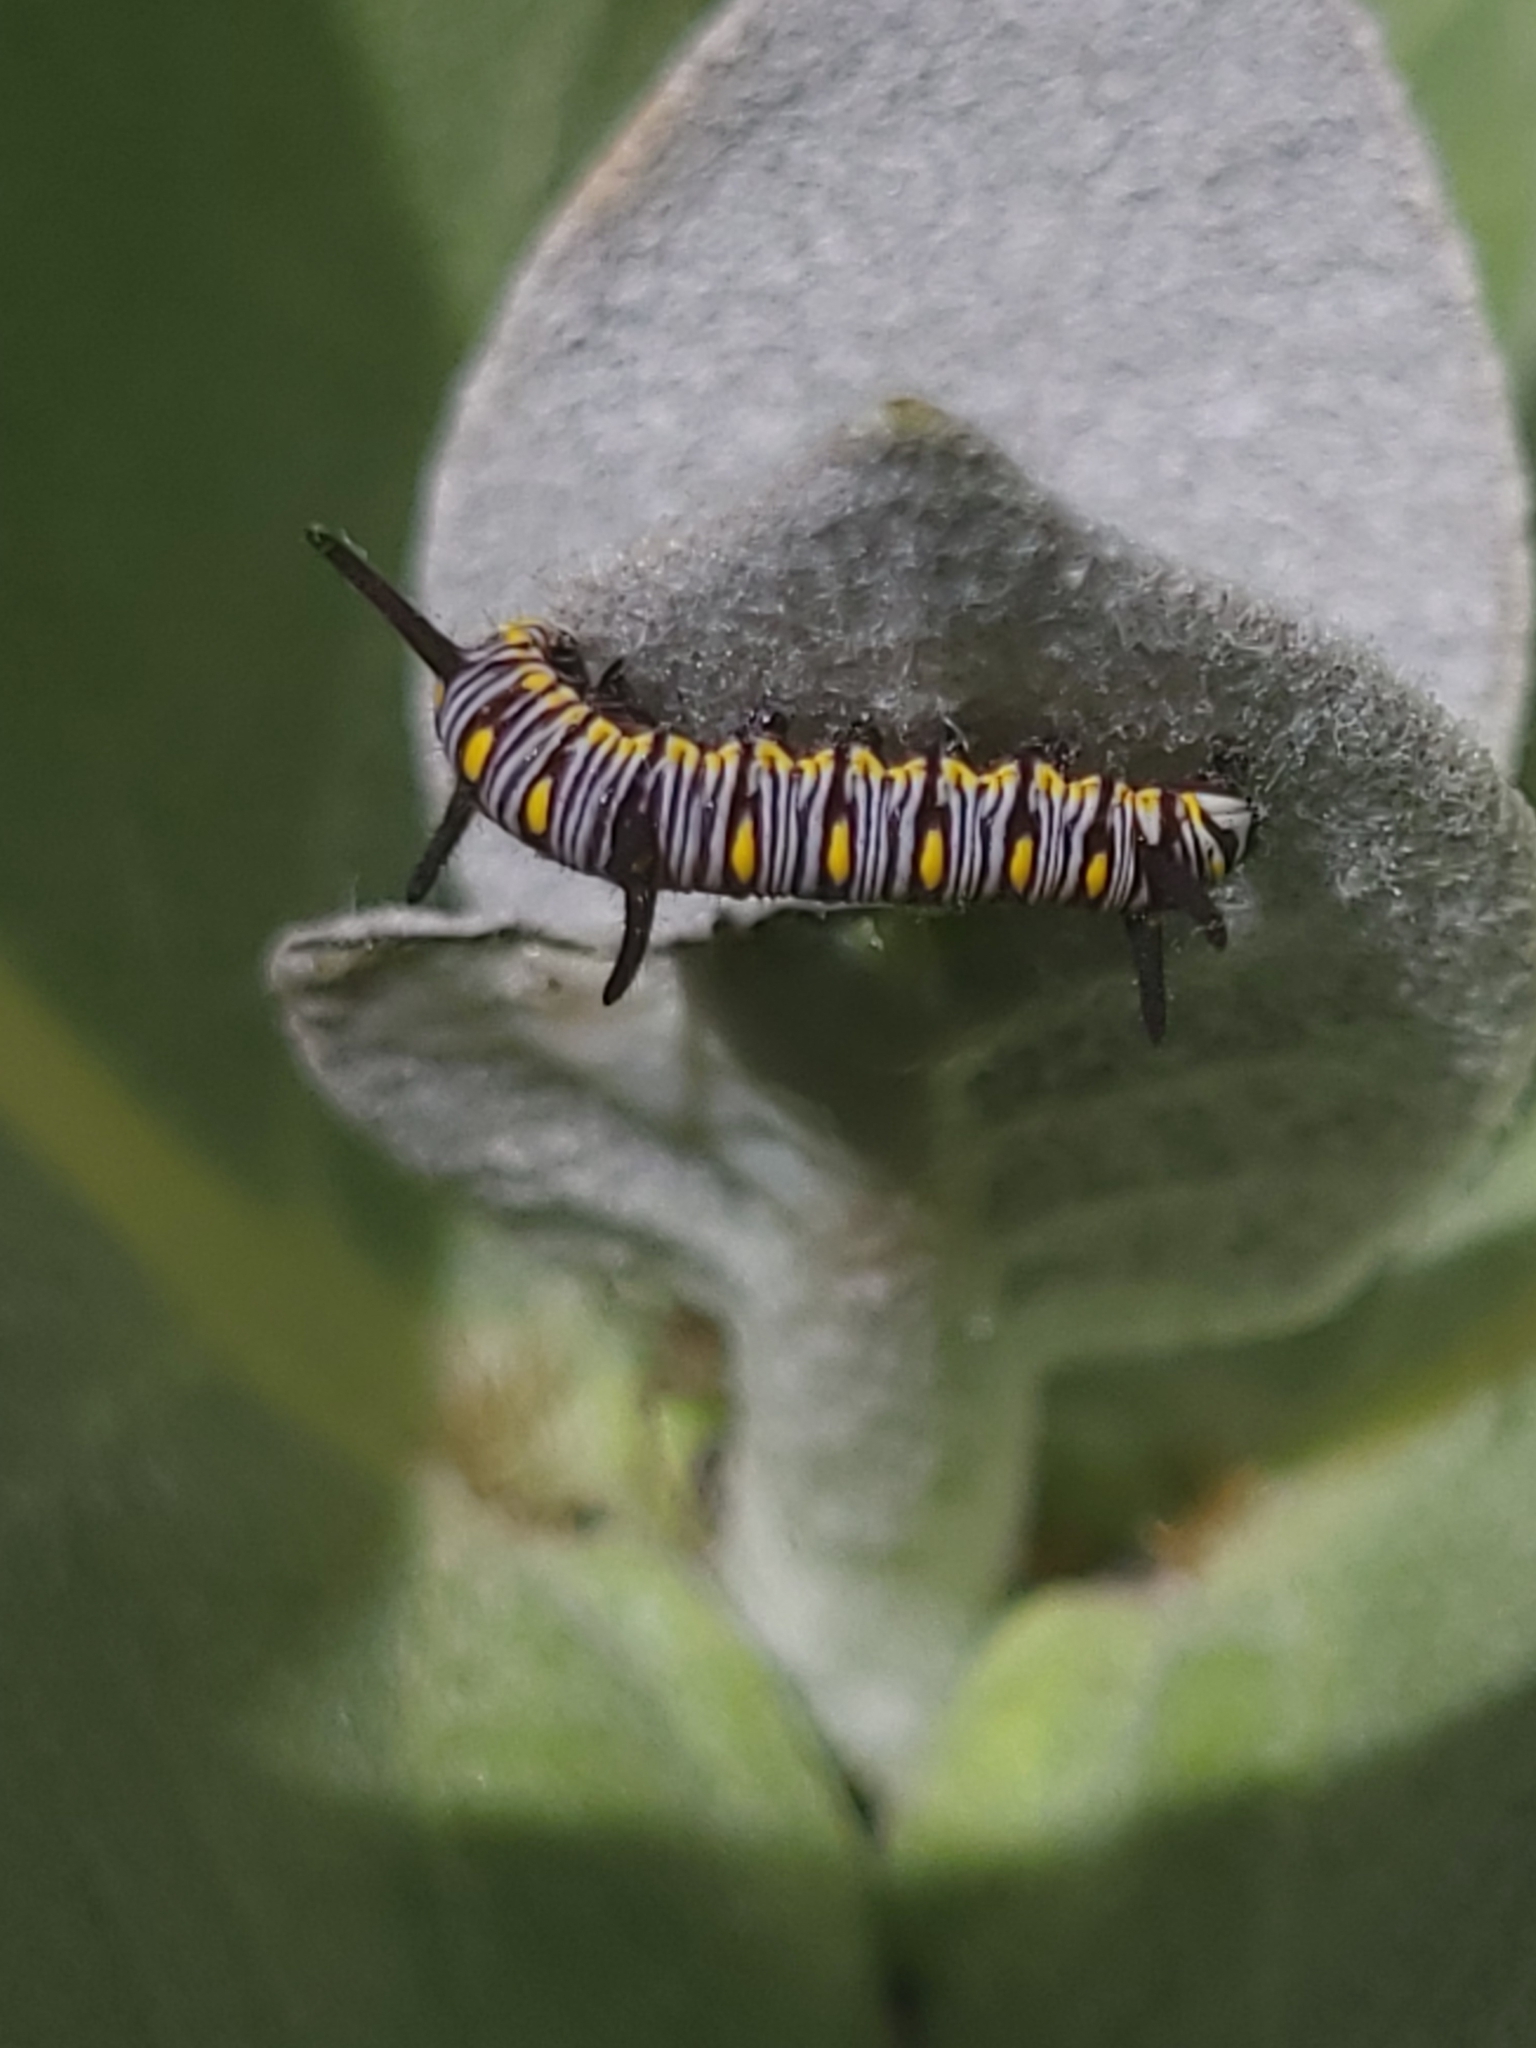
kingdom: Animalia
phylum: Arthropoda
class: Insecta
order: Lepidoptera
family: Nymphalidae
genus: Danaus
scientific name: Danaus chrysippus
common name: Plain tiger
